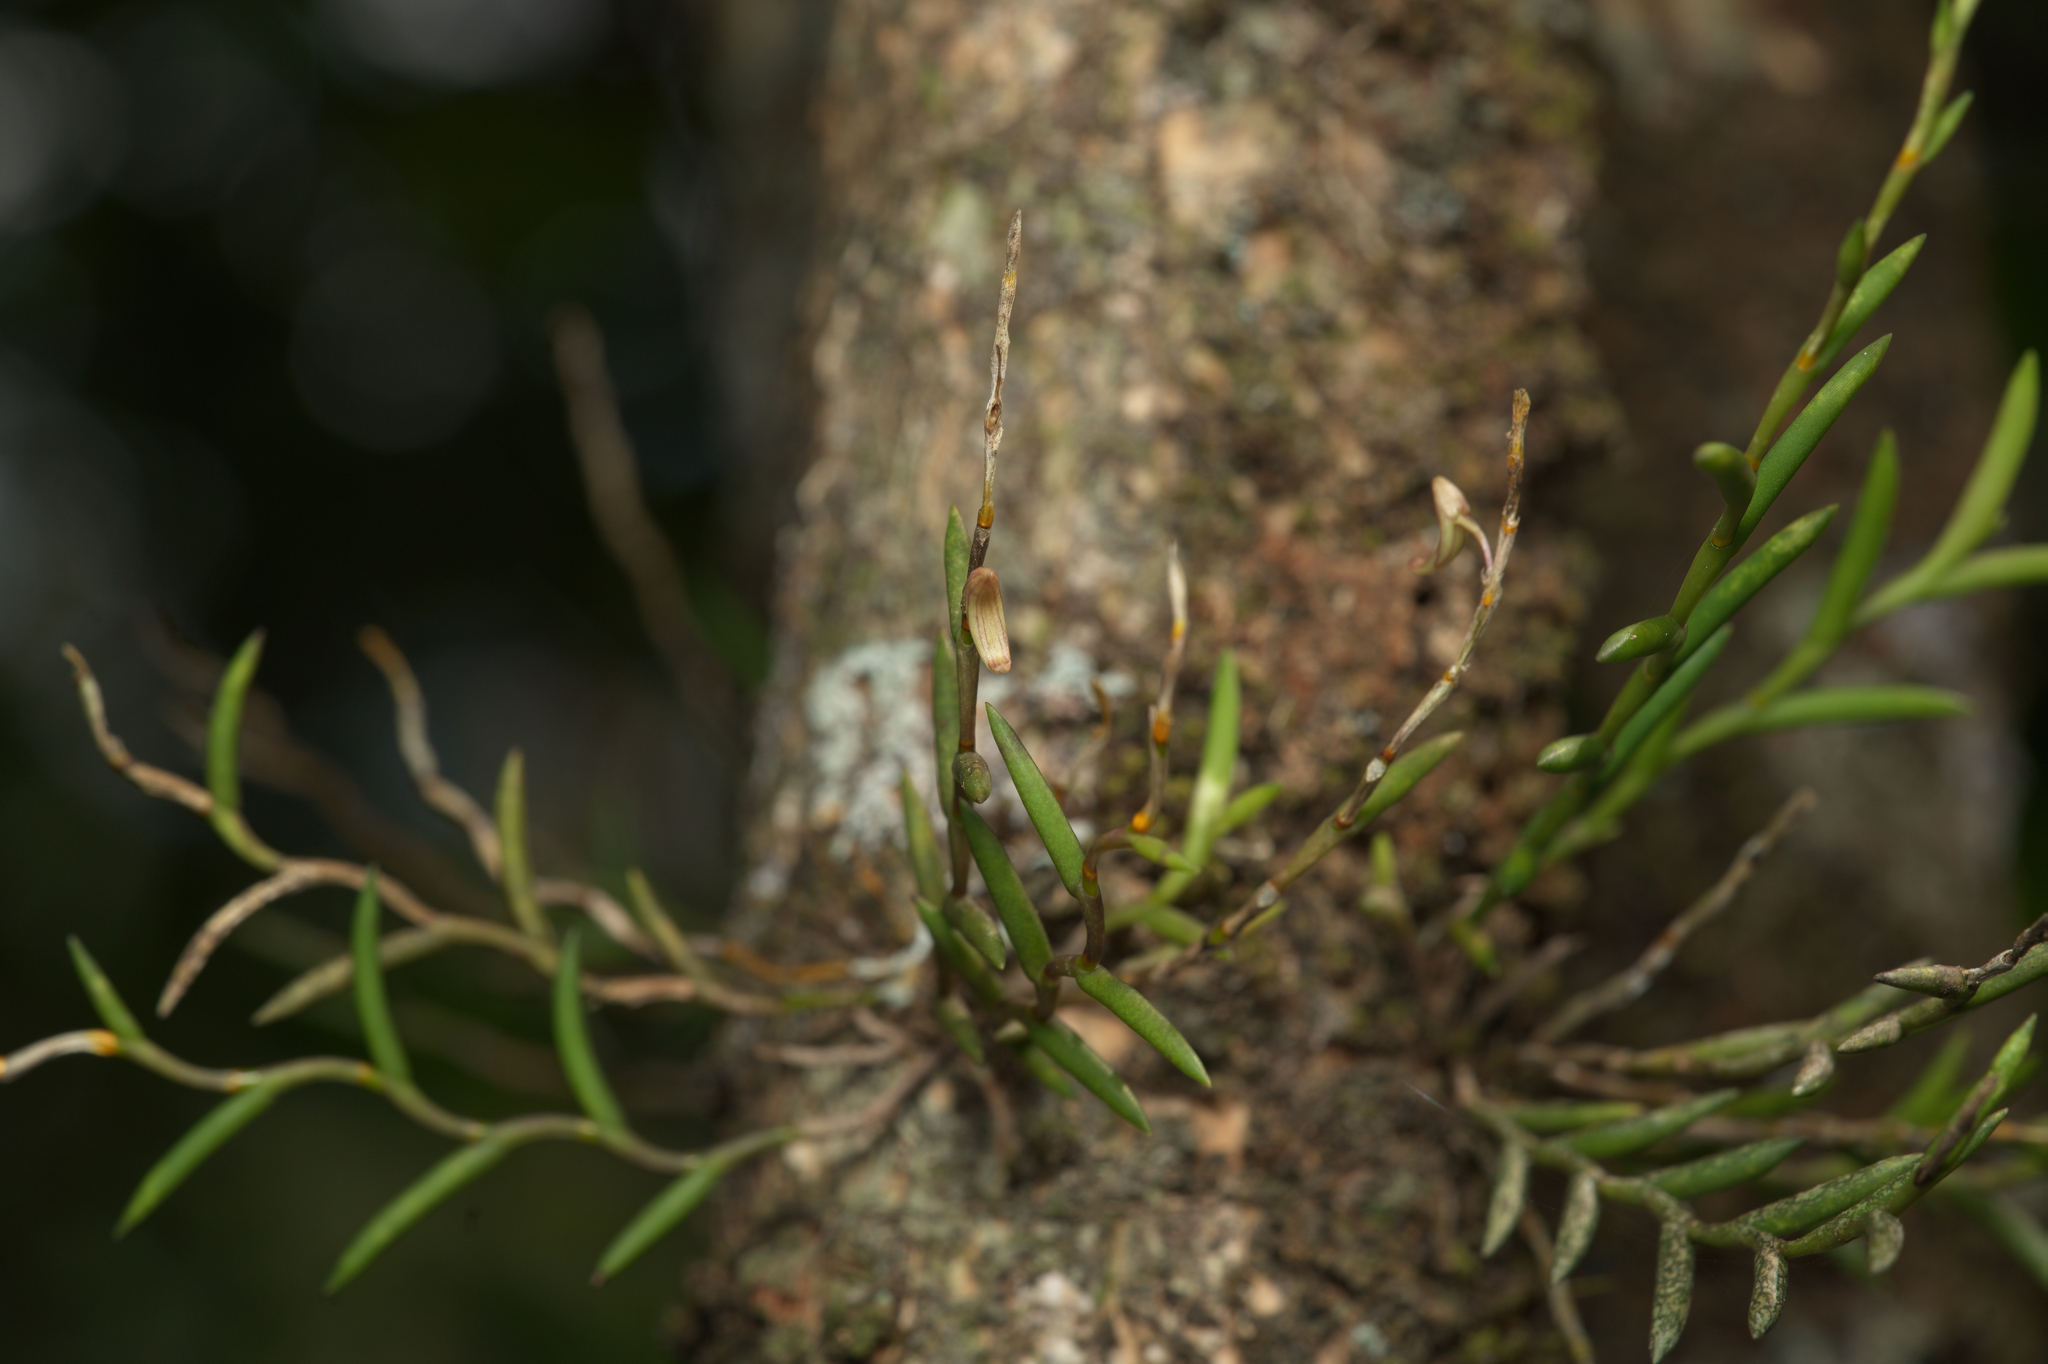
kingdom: Plantae
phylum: Tracheophyta
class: Liliopsida
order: Asparagales
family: Orchidaceae
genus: Dendrobium
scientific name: Dendrobium acerosum
